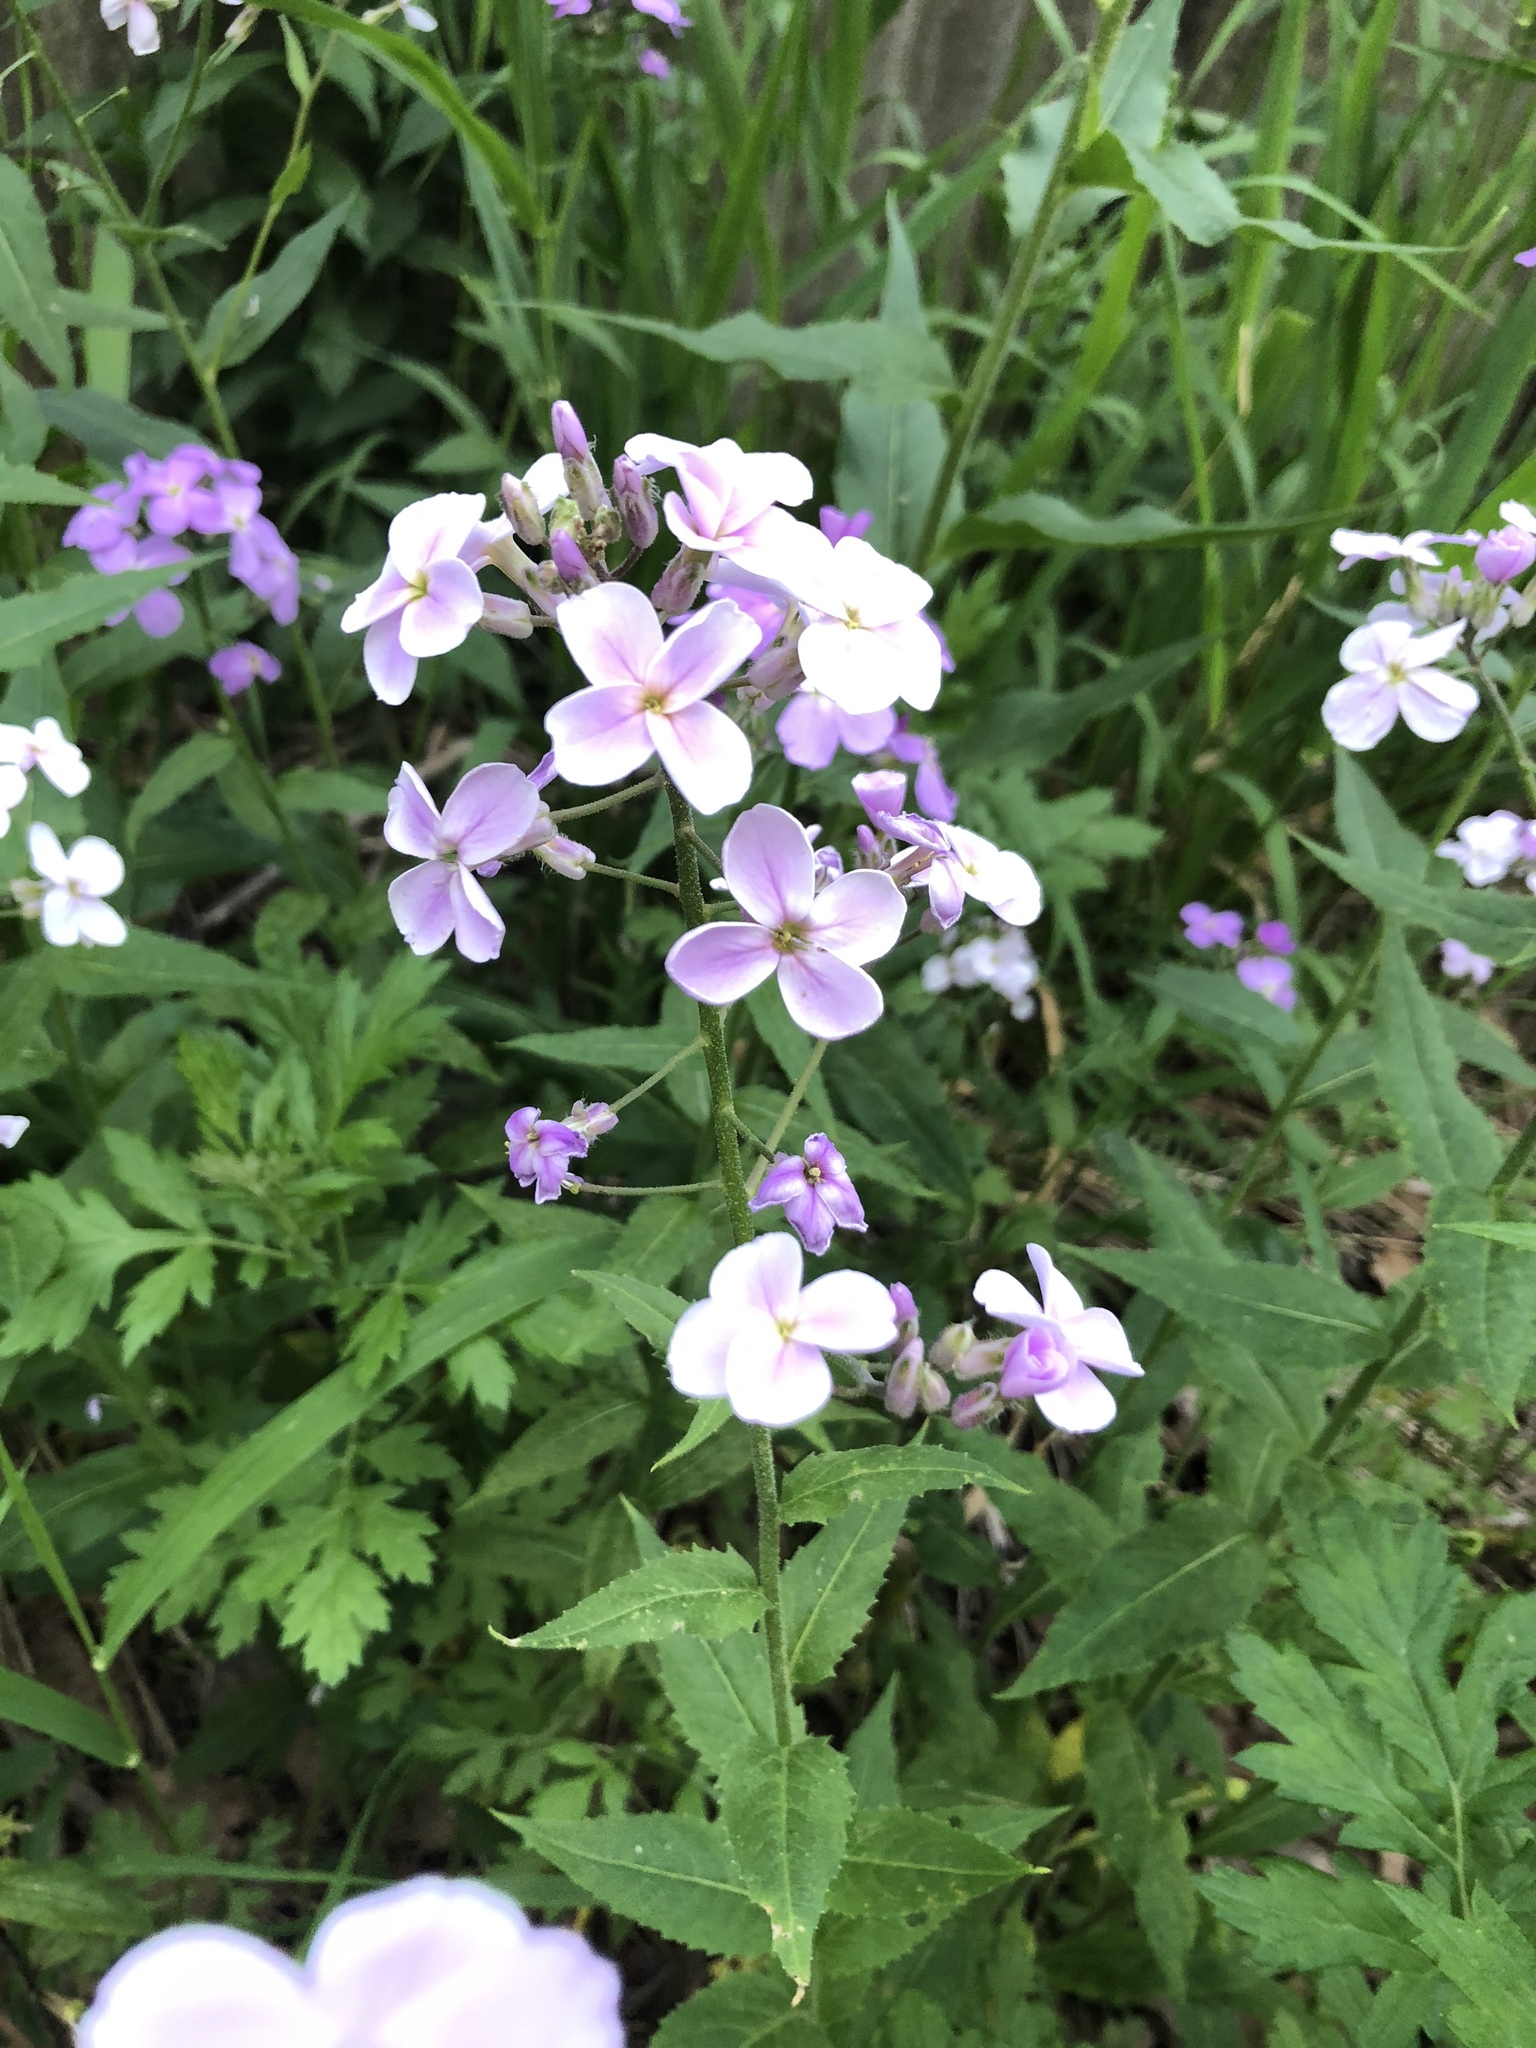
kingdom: Plantae
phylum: Tracheophyta
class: Magnoliopsida
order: Brassicales
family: Brassicaceae
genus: Hesperis
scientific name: Hesperis matronalis
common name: Dame's-violet
